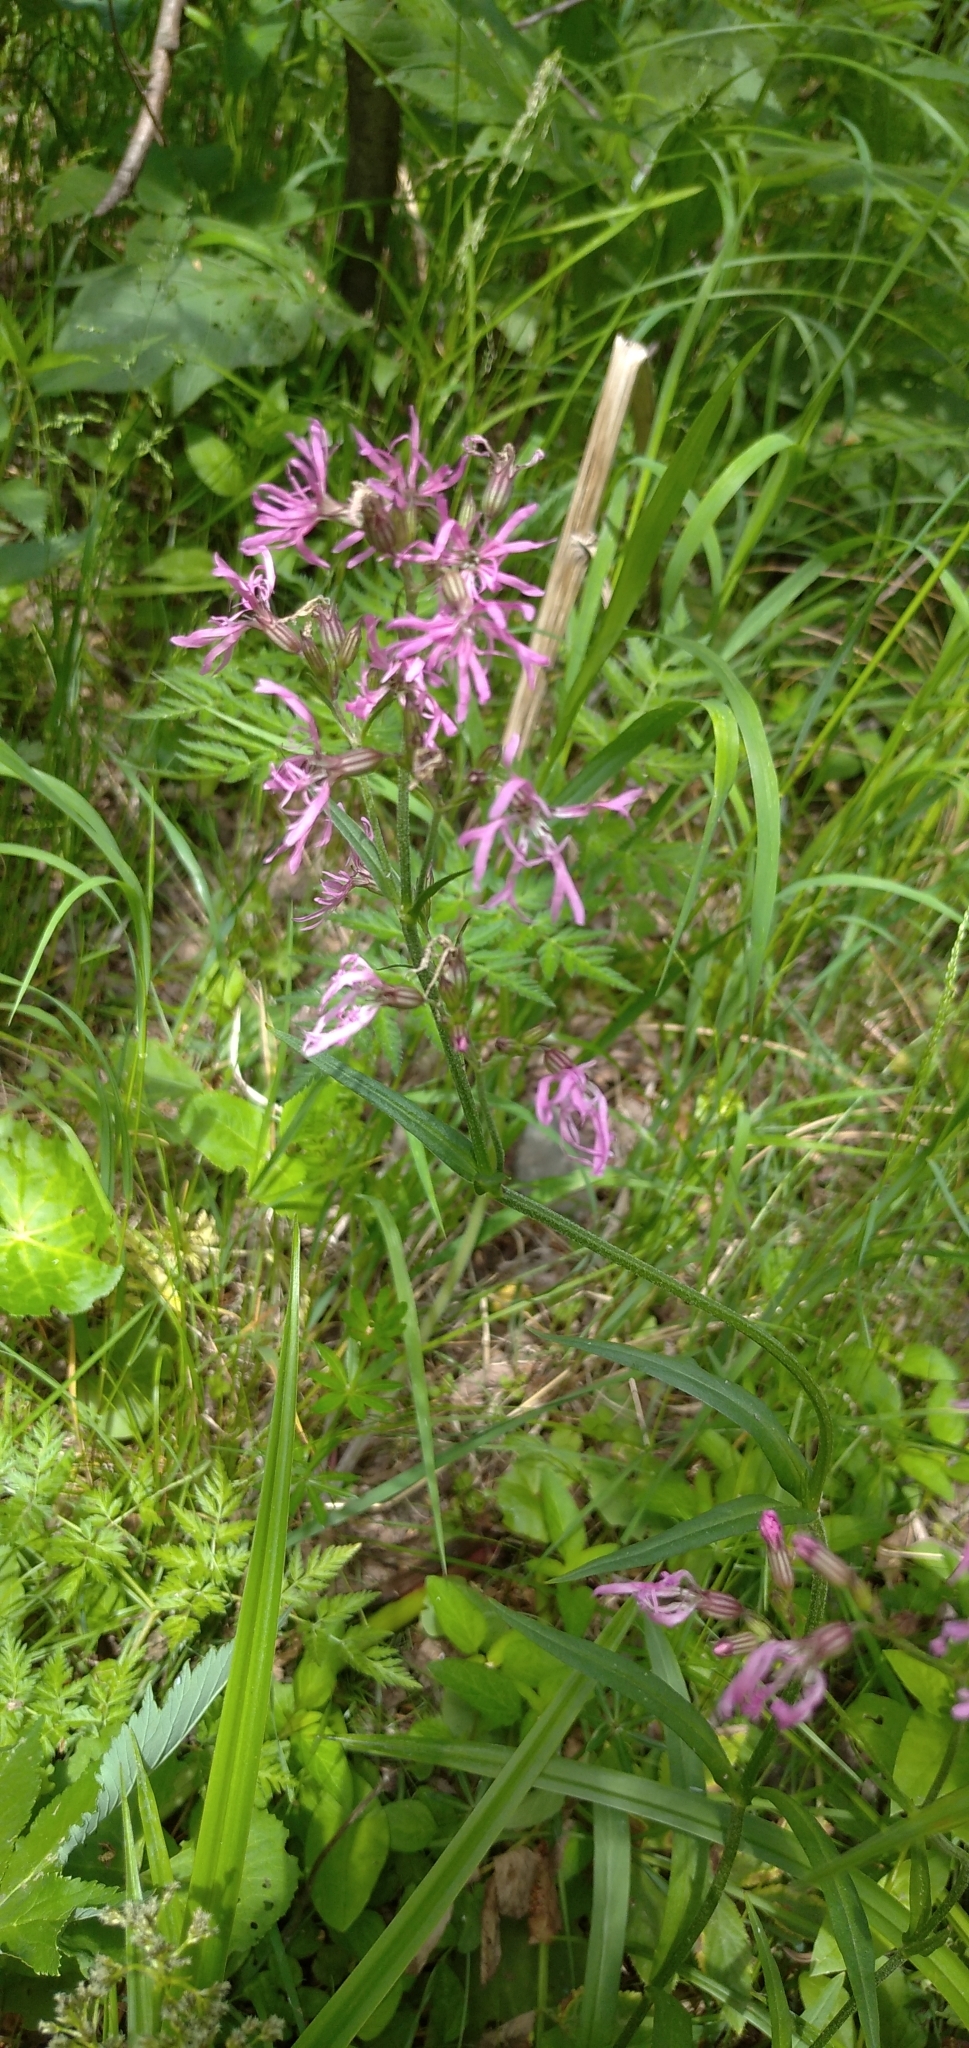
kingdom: Plantae
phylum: Tracheophyta
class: Magnoliopsida
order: Caryophyllales
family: Caryophyllaceae
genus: Silene
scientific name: Silene flos-cuculi
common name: Ragged-robin
